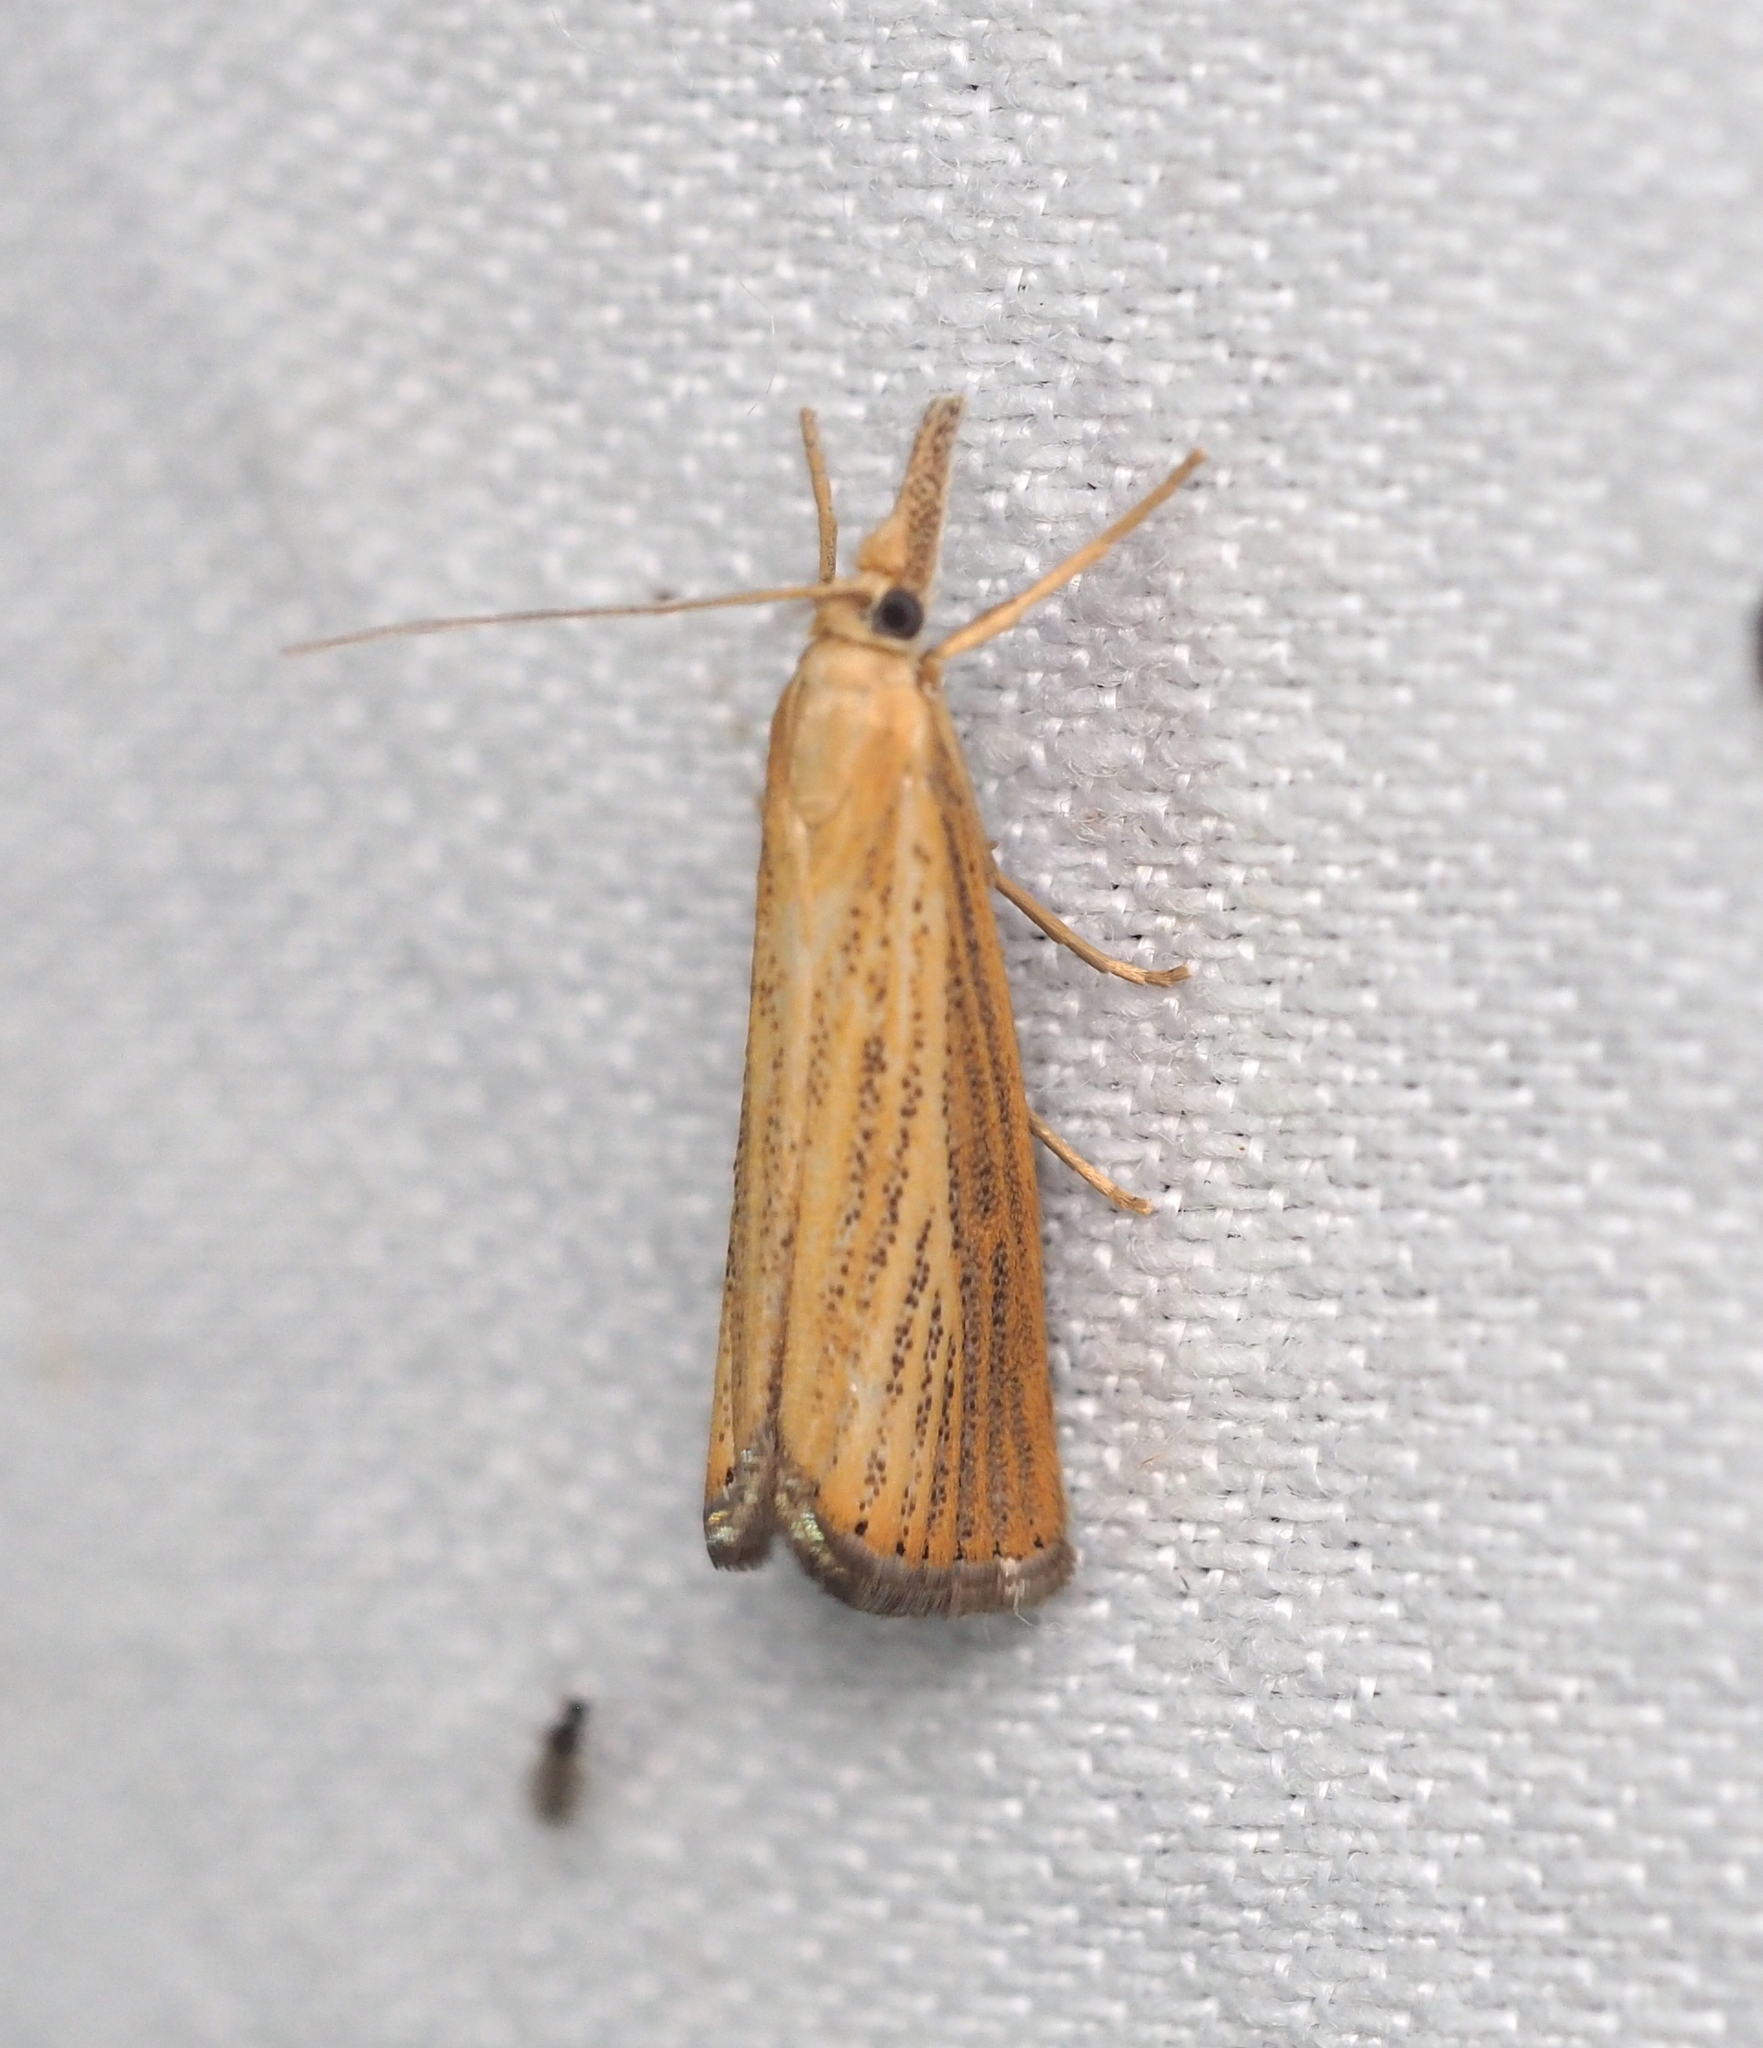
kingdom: Animalia
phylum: Arthropoda
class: Insecta
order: Lepidoptera
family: Crambidae
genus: Agriphila
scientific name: Agriphila straminella
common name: Straw grass-veneer
